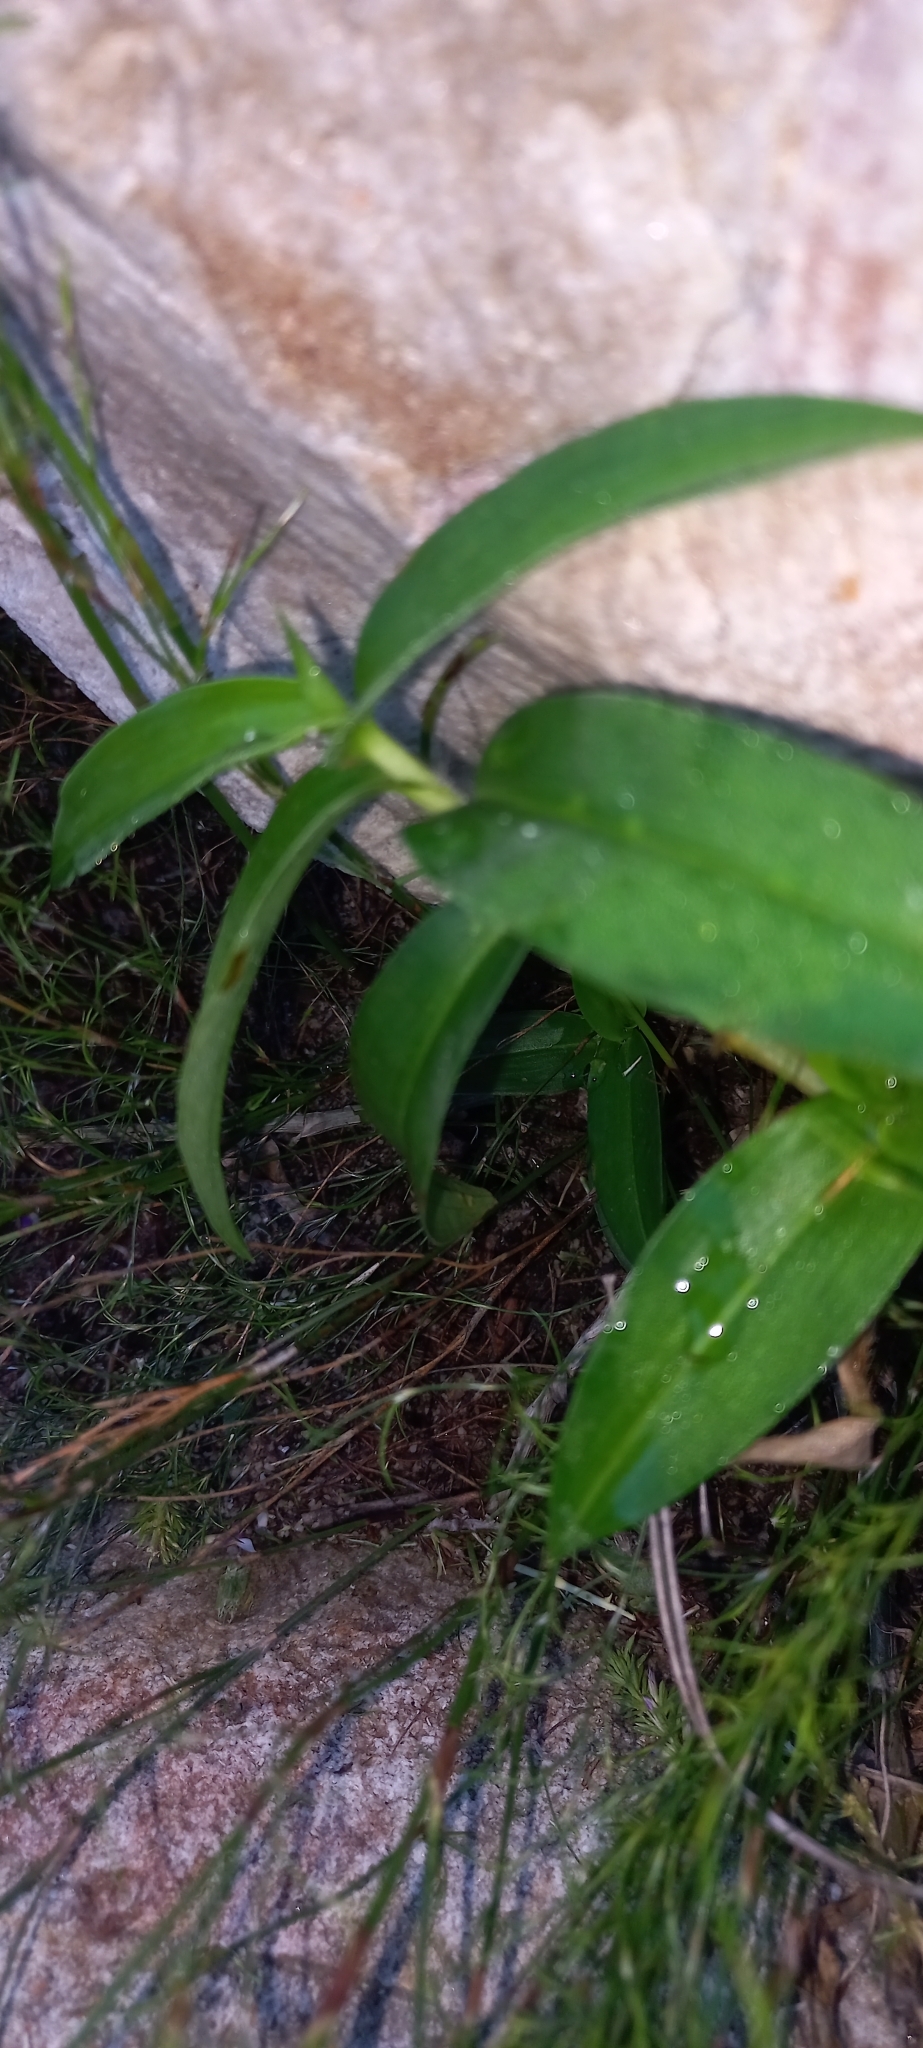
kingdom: Plantae
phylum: Tracheophyta
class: Liliopsida
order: Commelinales
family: Commelinaceae
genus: Commelina
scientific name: Commelina africana
